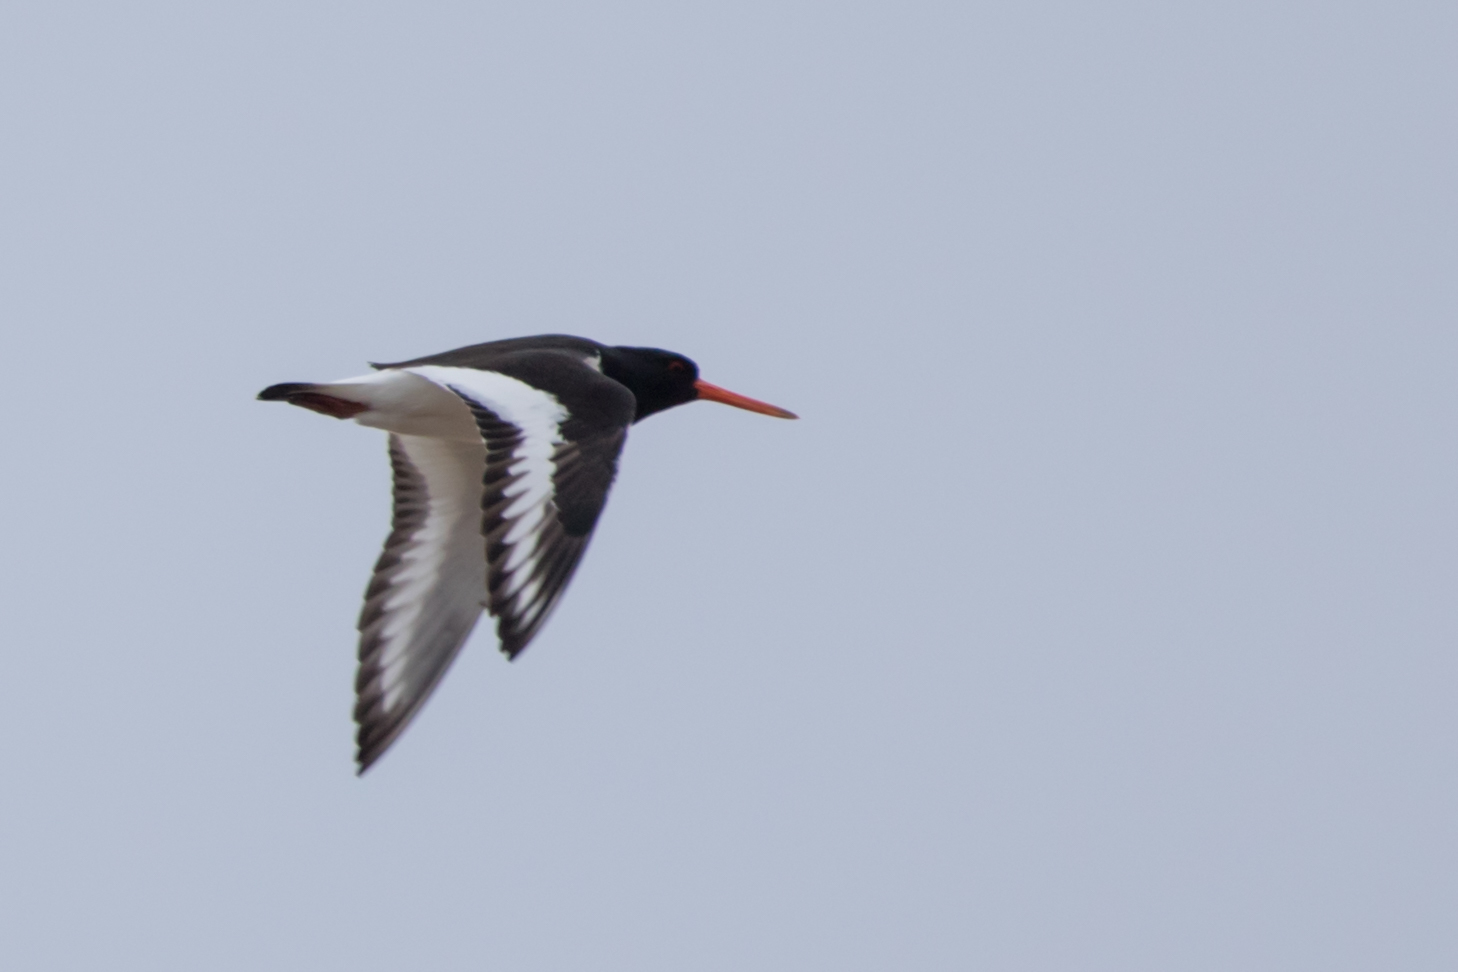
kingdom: Animalia
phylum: Chordata
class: Aves
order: Charadriiformes
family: Haematopodidae
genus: Haematopus
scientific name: Haematopus ostralegus
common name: Eurasian oystercatcher
